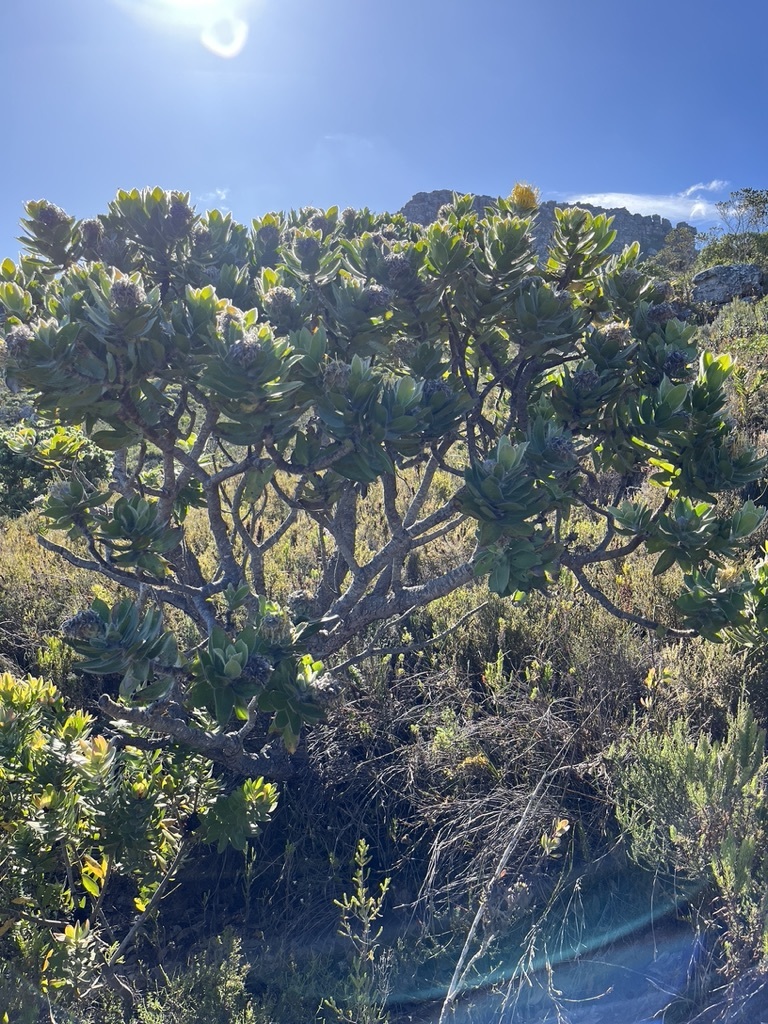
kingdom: Plantae
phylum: Tracheophyta
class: Magnoliopsida
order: Proteales
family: Proteaceae
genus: Leucospermum
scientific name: Leucospermum conocarpodendron
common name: Tree pincushion
